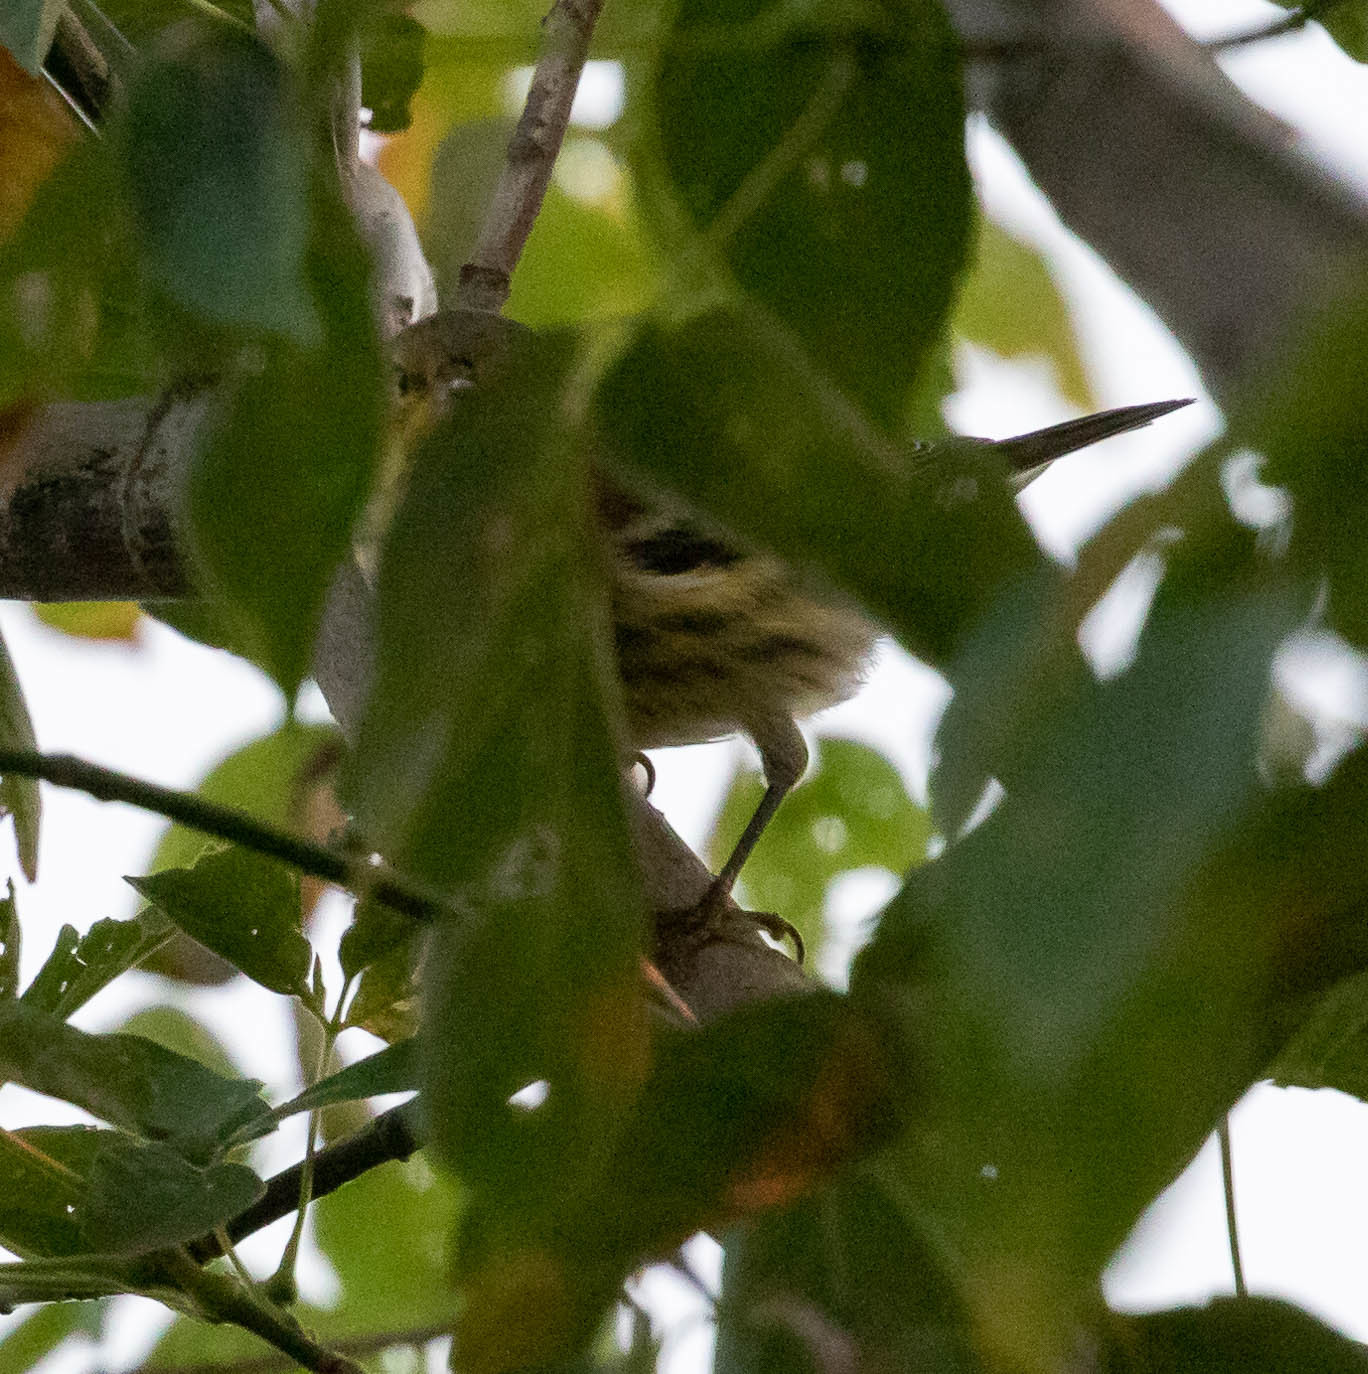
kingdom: Animalia
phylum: Chordata
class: Aves
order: Passeriformes
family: Parulidae
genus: Setophaga
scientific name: Setophaga tigrina
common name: Cape may warbler
